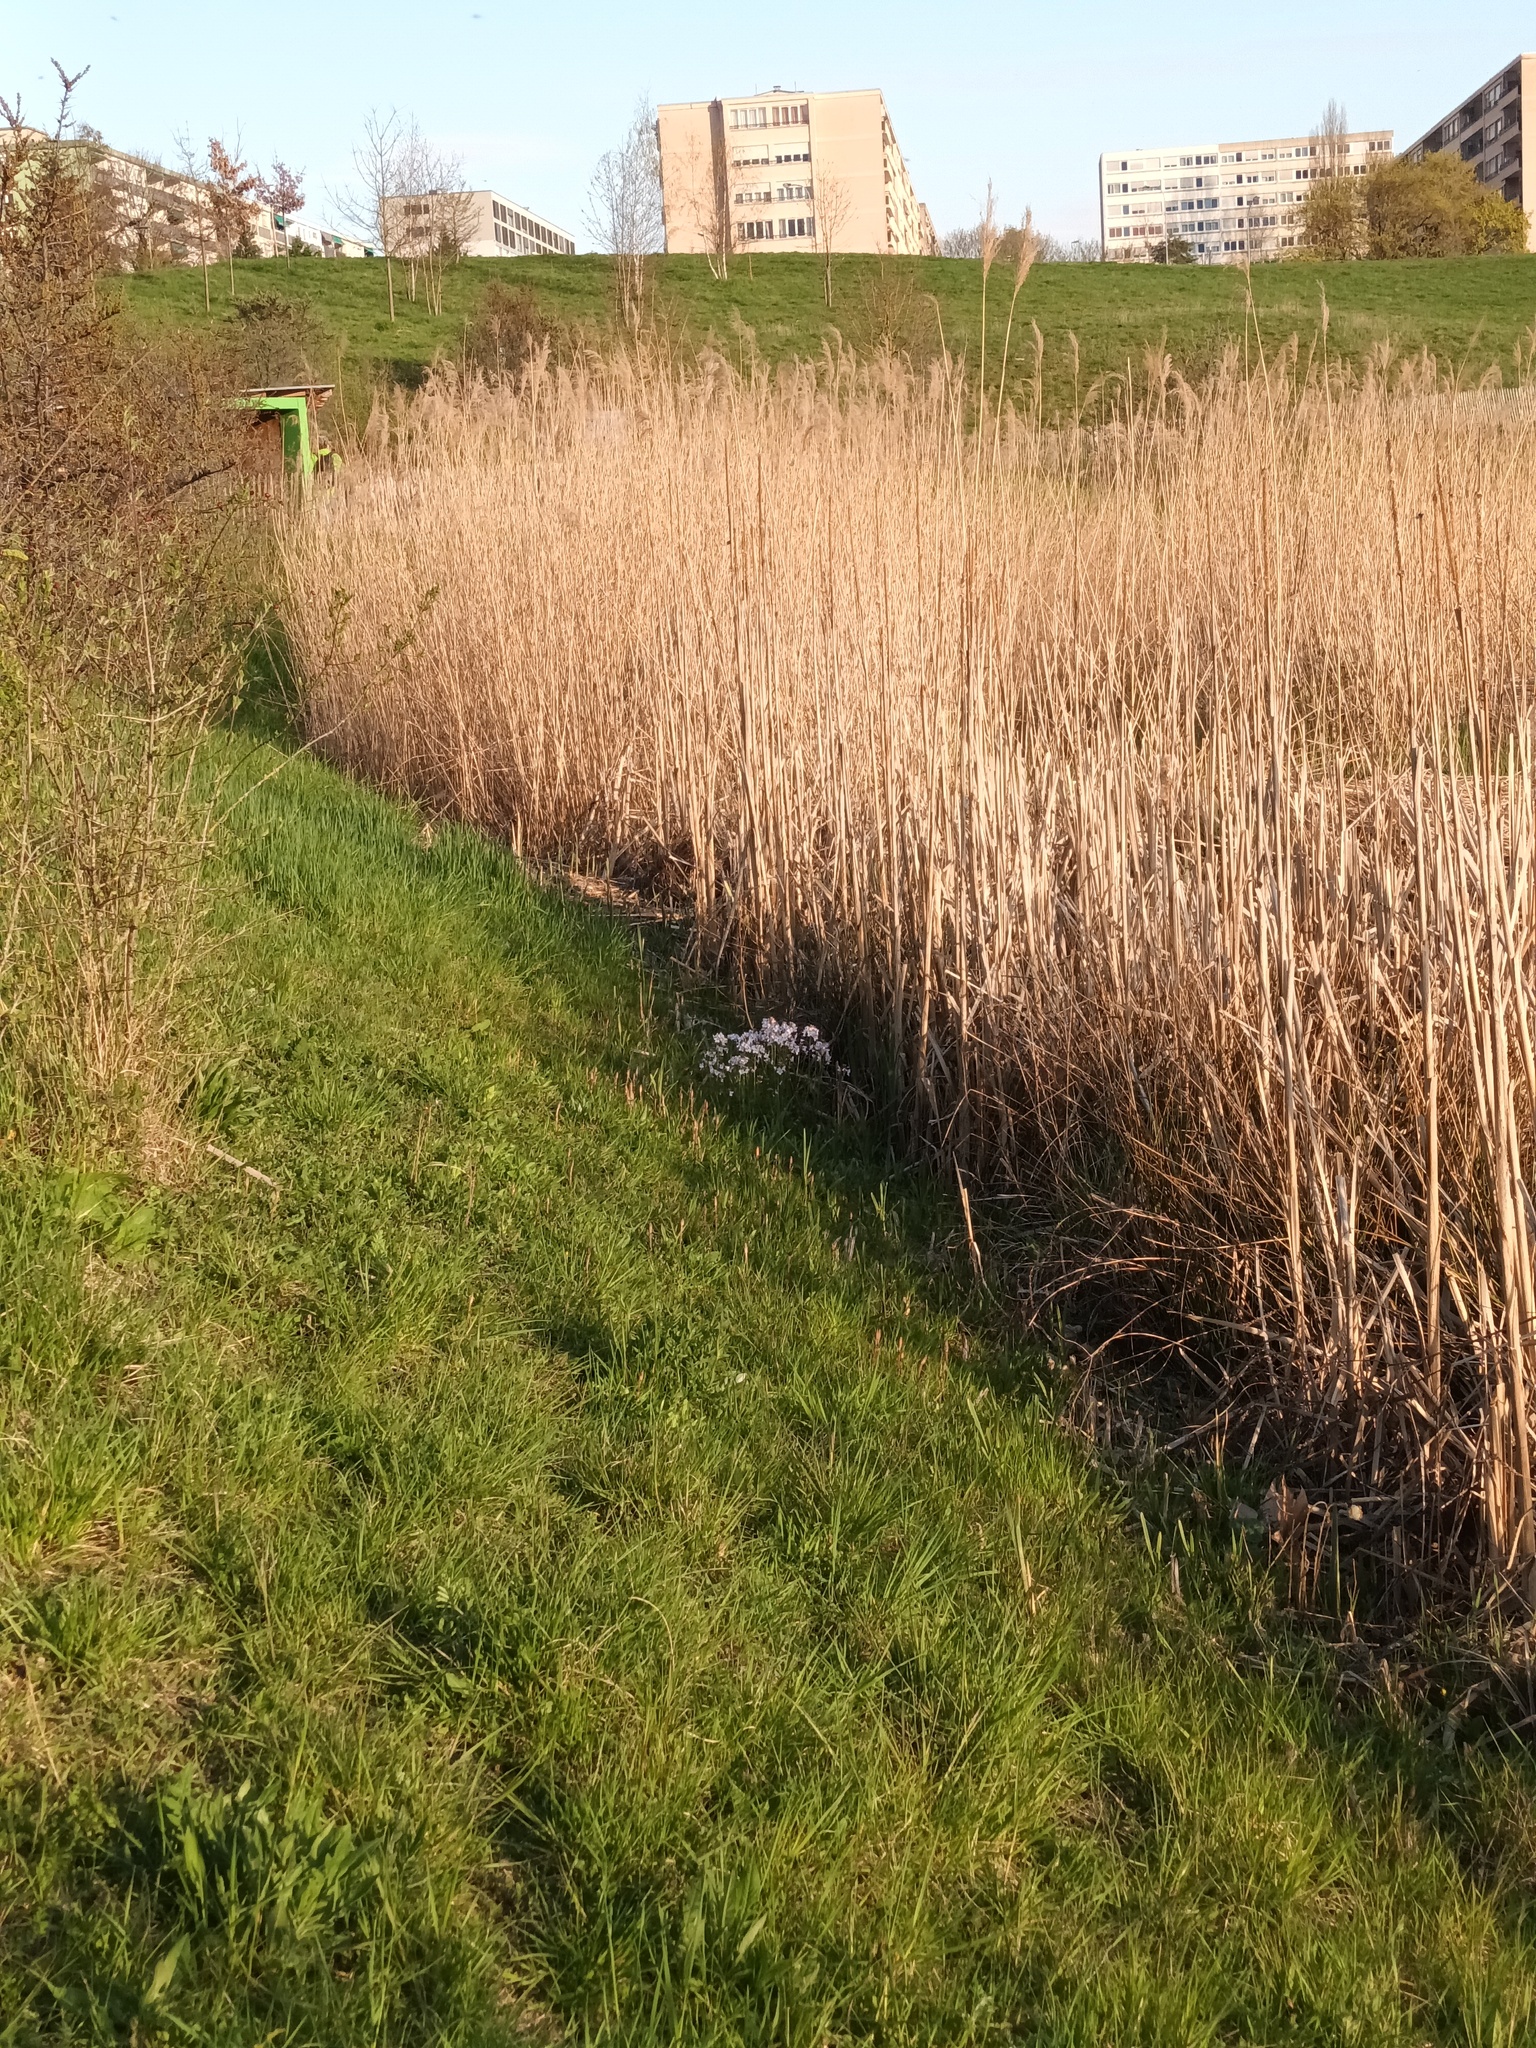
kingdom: Plantae
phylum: Tracheophyta
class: Magnoliopsida
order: Brassicales
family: Brassicaceae
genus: Cardamine
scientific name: Cardamine pratensis
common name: Cuckoo flower
